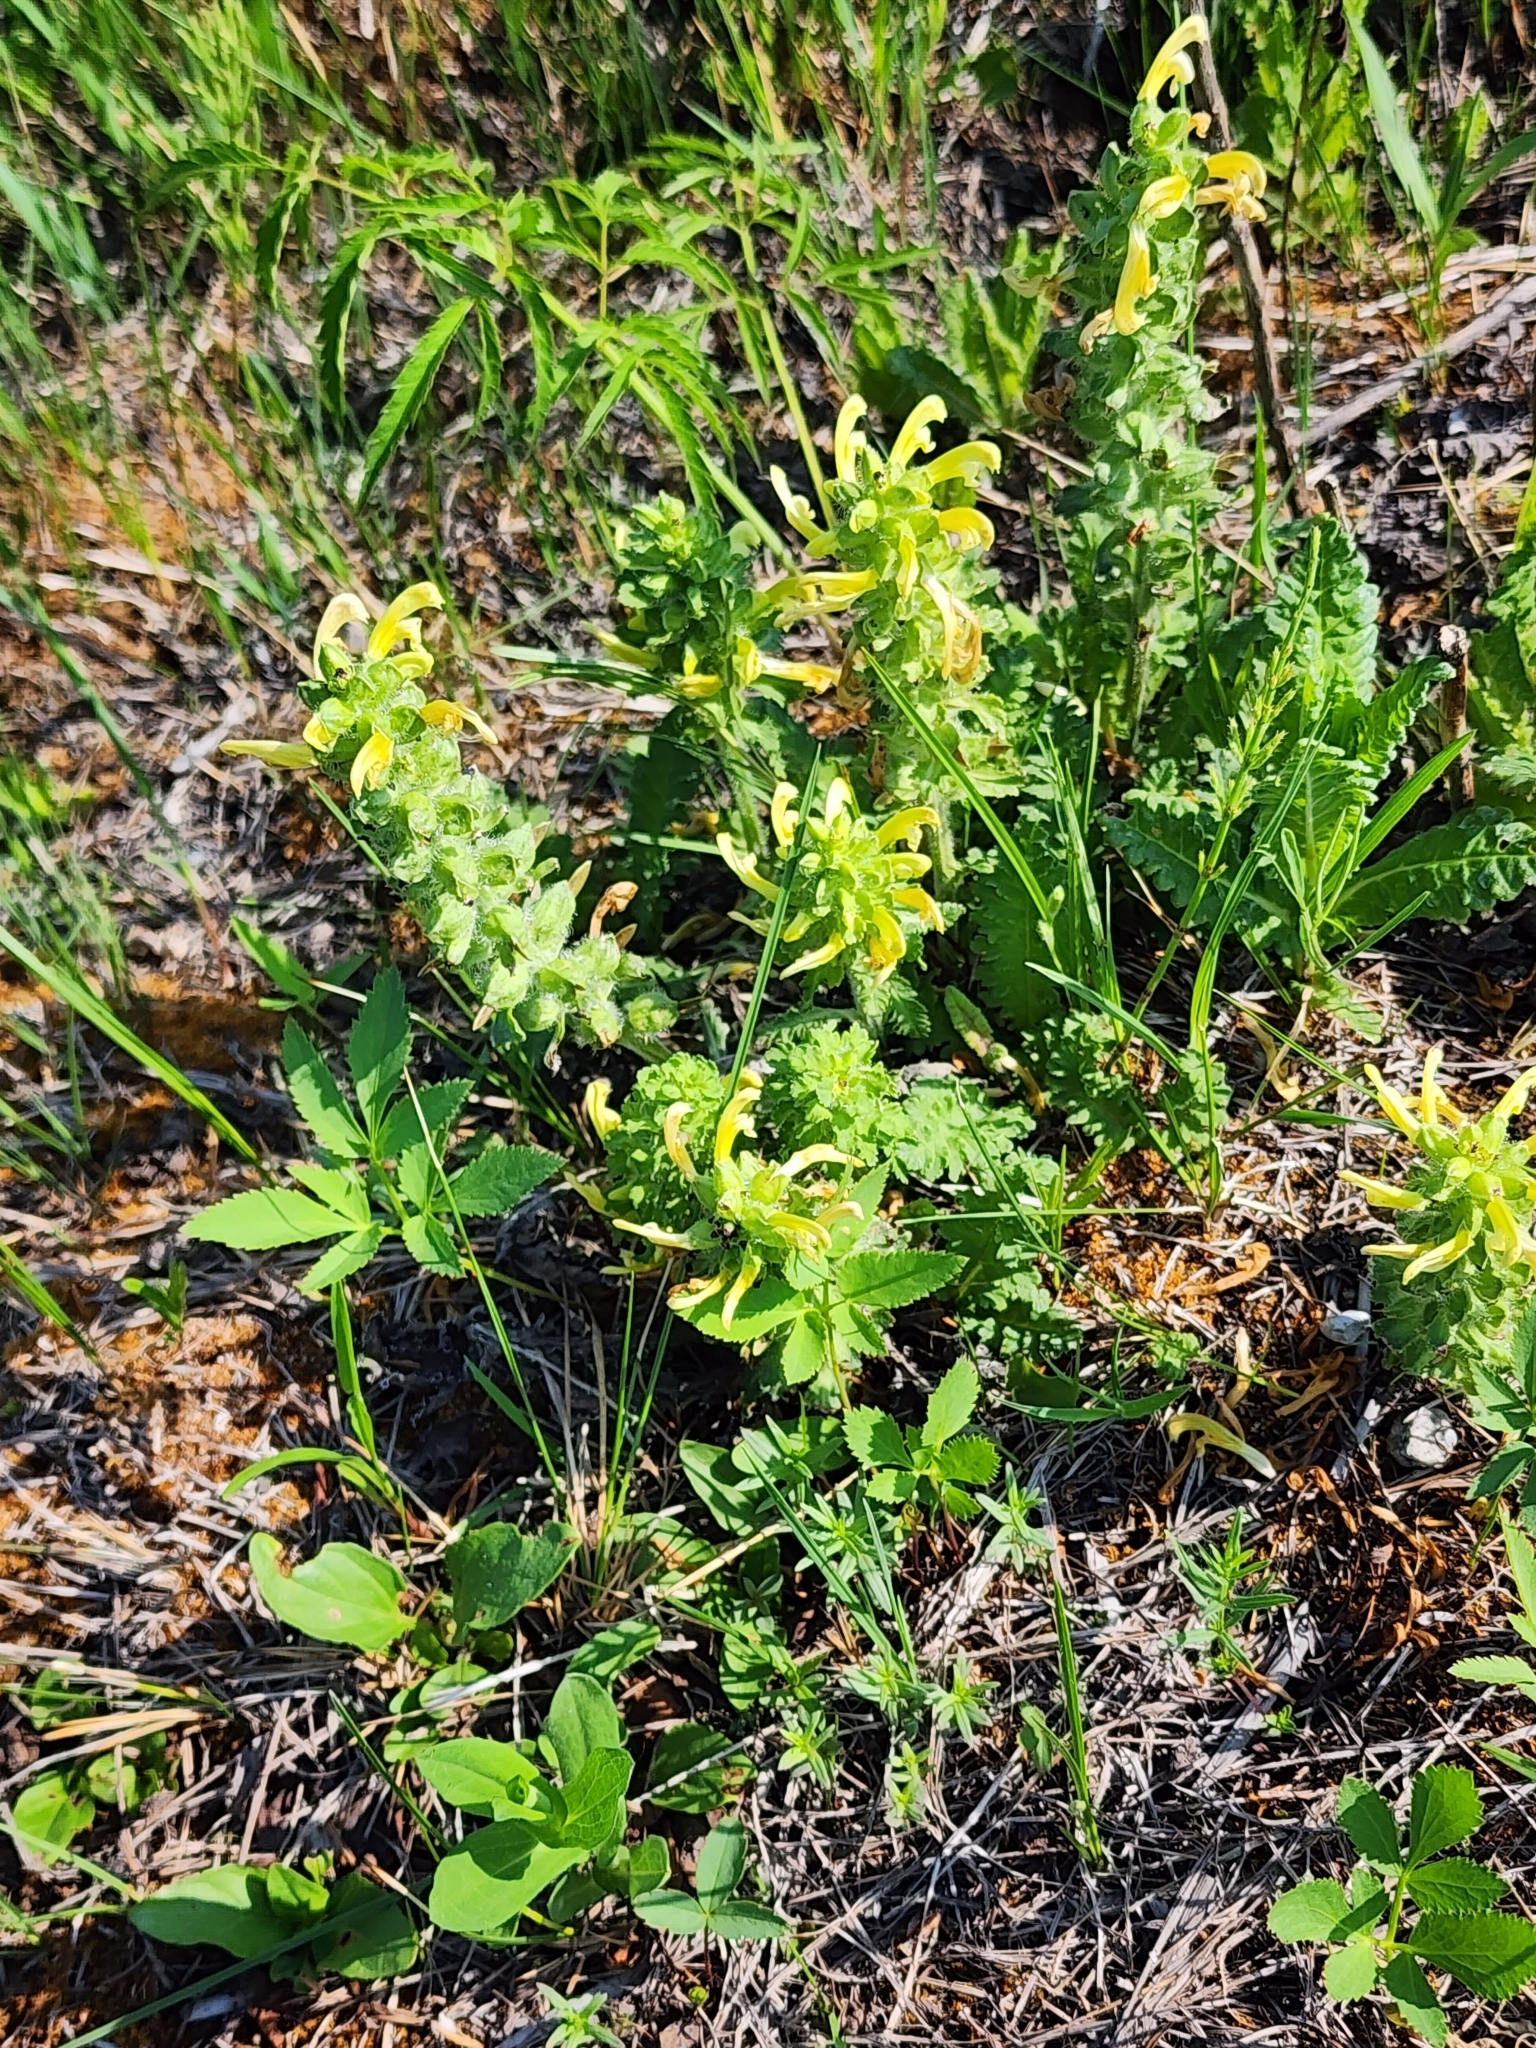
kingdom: Plantae
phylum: Tracheophyta
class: Magnoliopsida
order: Lamiales
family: Orobanchaceae
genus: Pedicularis
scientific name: Pedicularis canadensis
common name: Early lousewort
